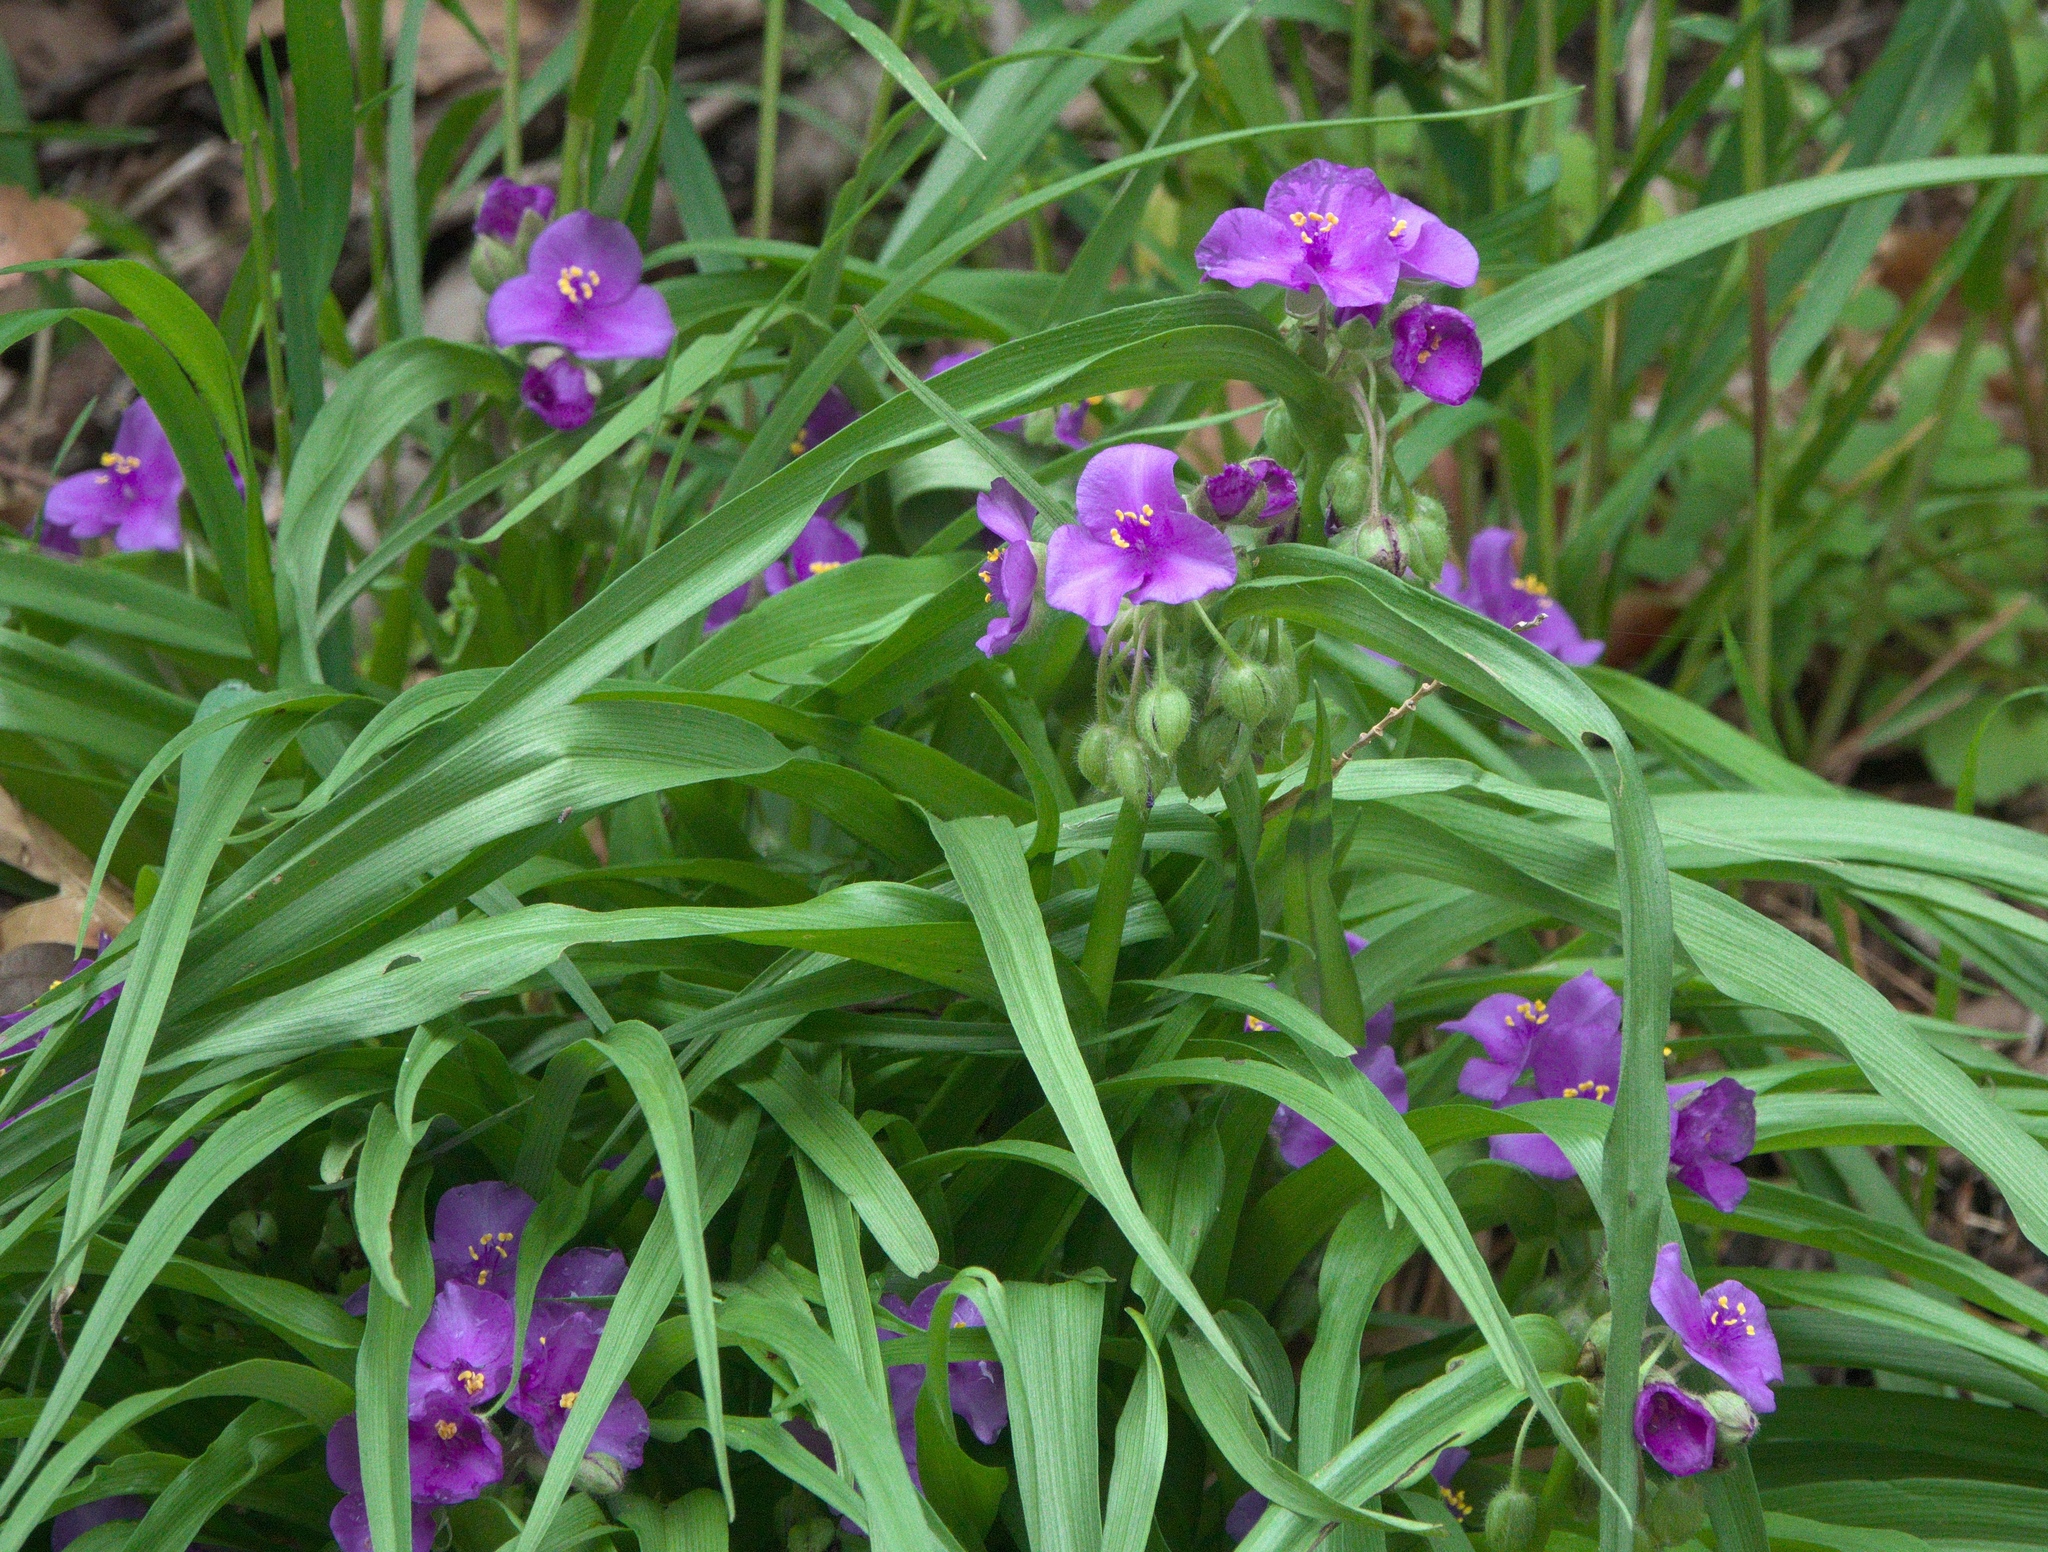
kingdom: Plantae
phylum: Tracheophyta
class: Liliopsida
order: Commelinales
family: Commelinaceae
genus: Tradescantia
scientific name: Tradescantia ernestiana
